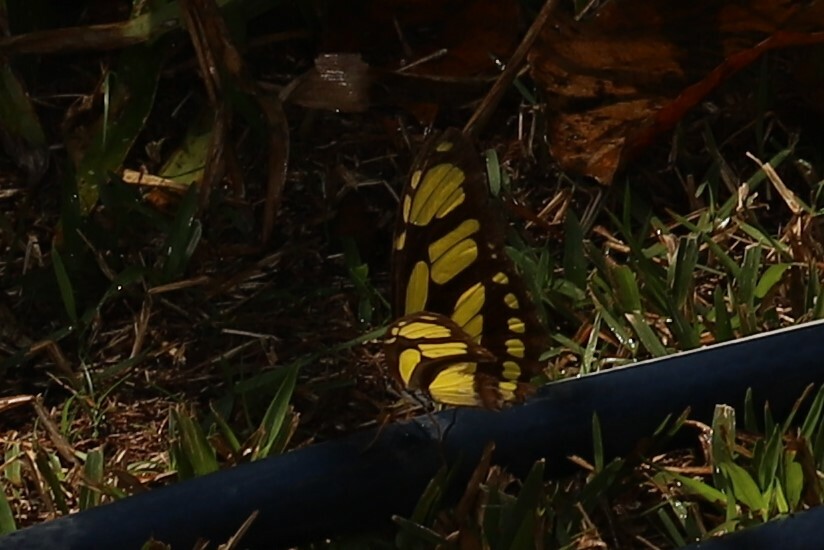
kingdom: Animalia
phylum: Arthropoda
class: Insecta
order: Lepidoptera
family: Nymphalidae
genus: Philaethria
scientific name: Philaethria dido
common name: Scarce bamboo page
